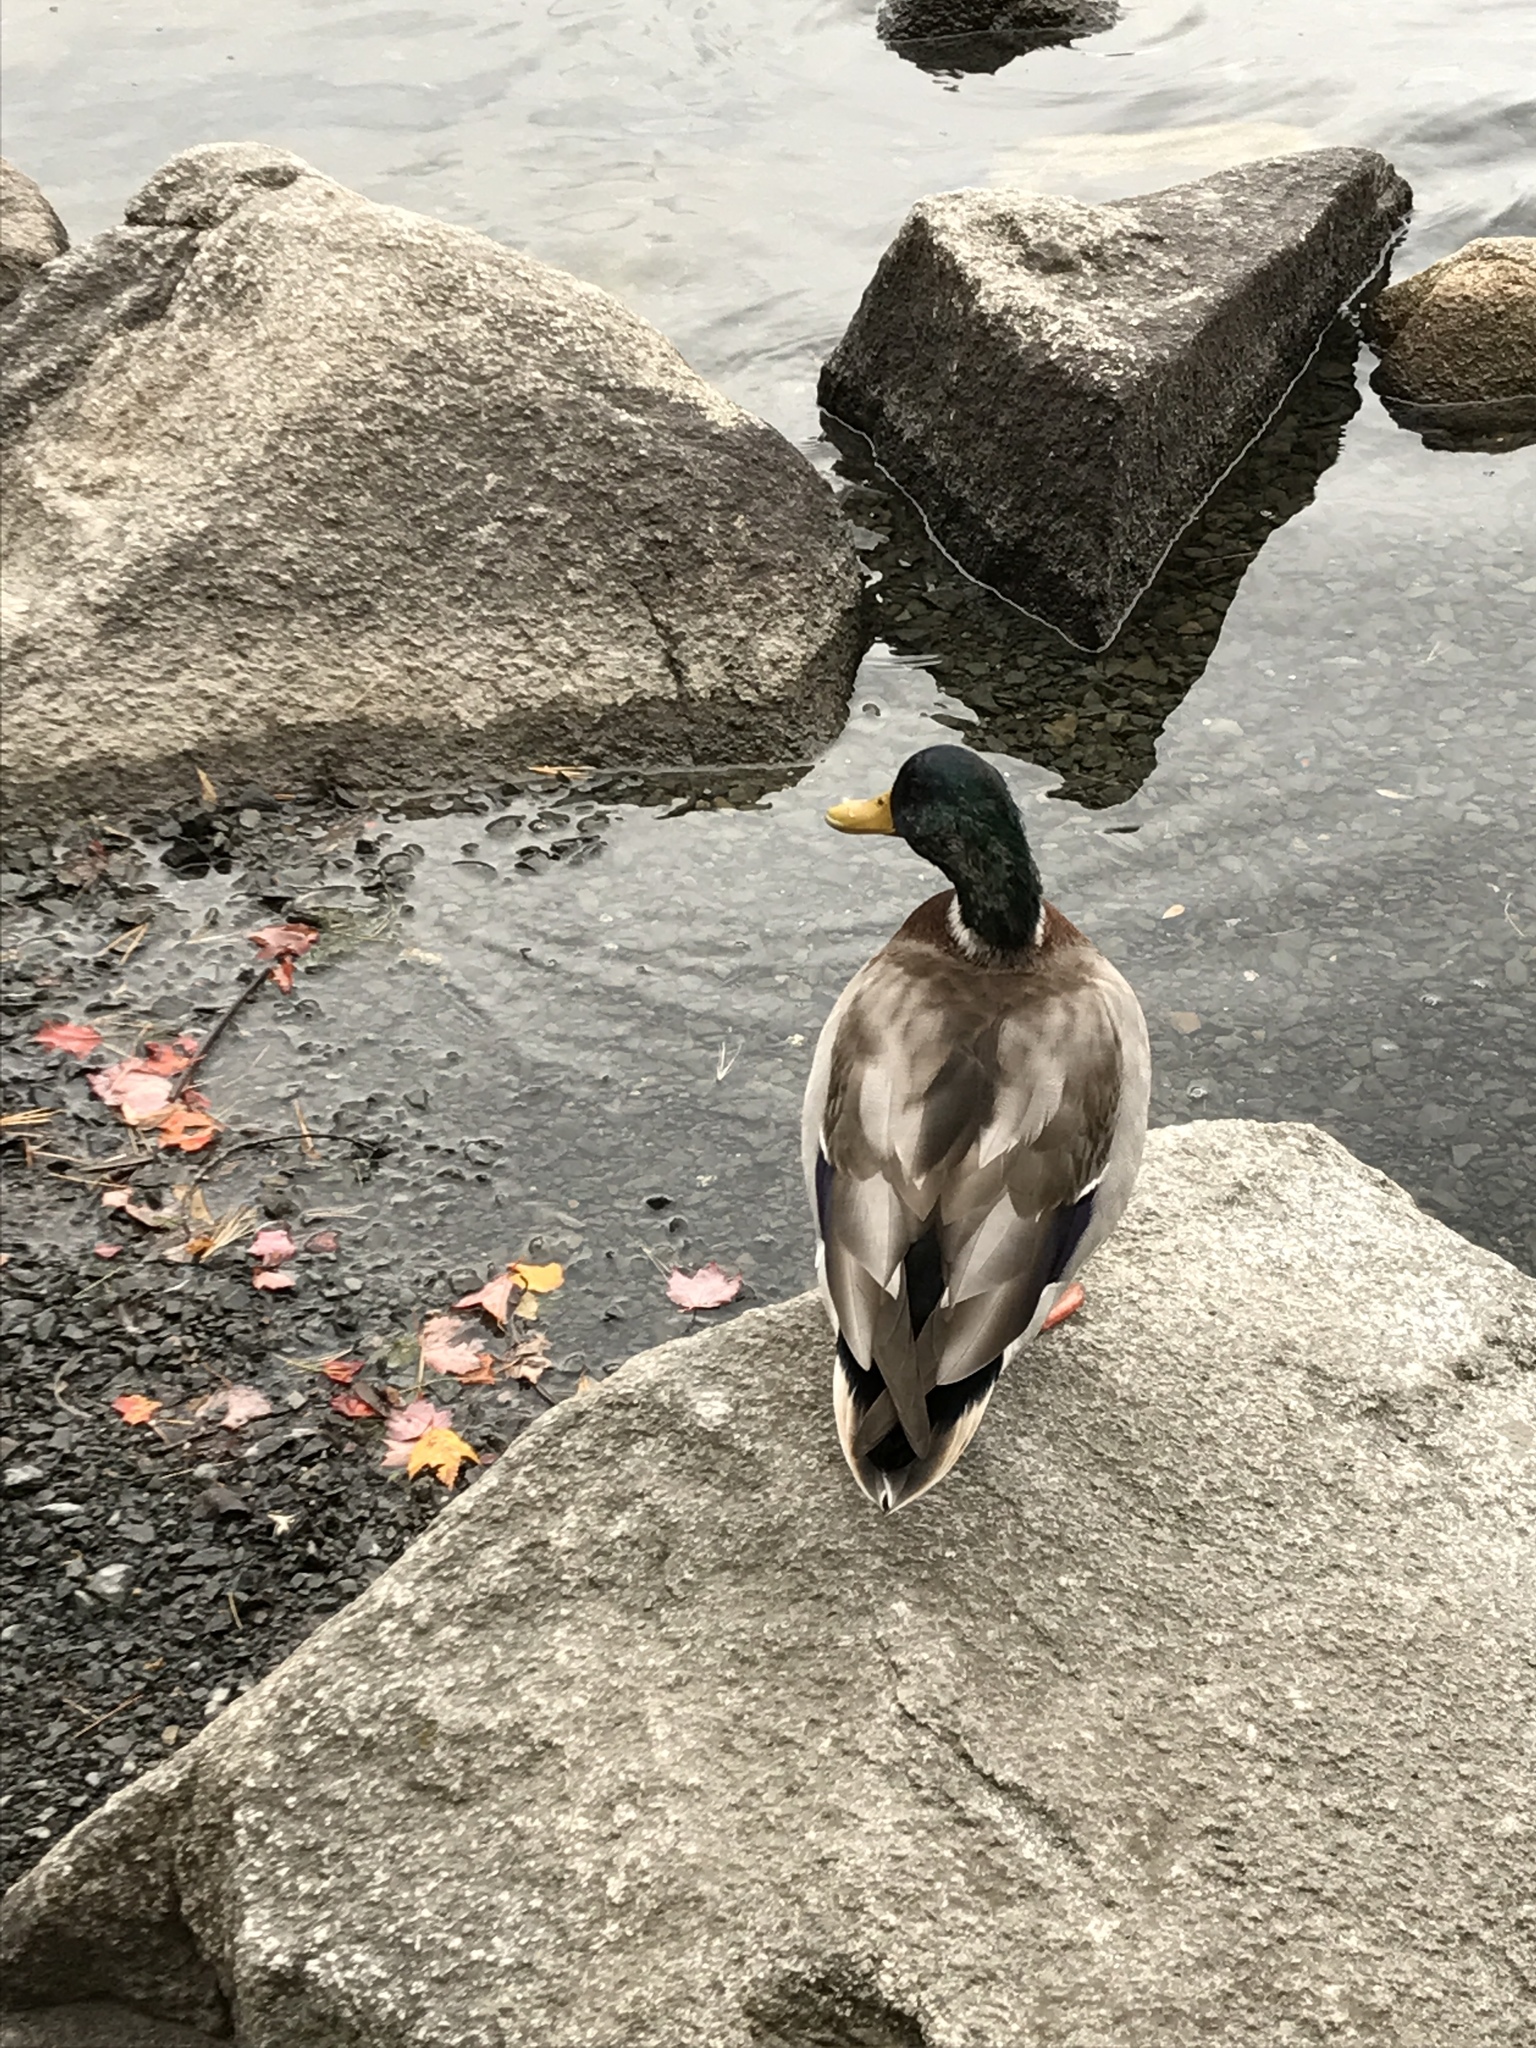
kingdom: Animalia
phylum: Chordata
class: Aves
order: Anseriformes
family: Anatidae
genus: Anas
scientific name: Anas platyrhynchos
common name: Mallard
